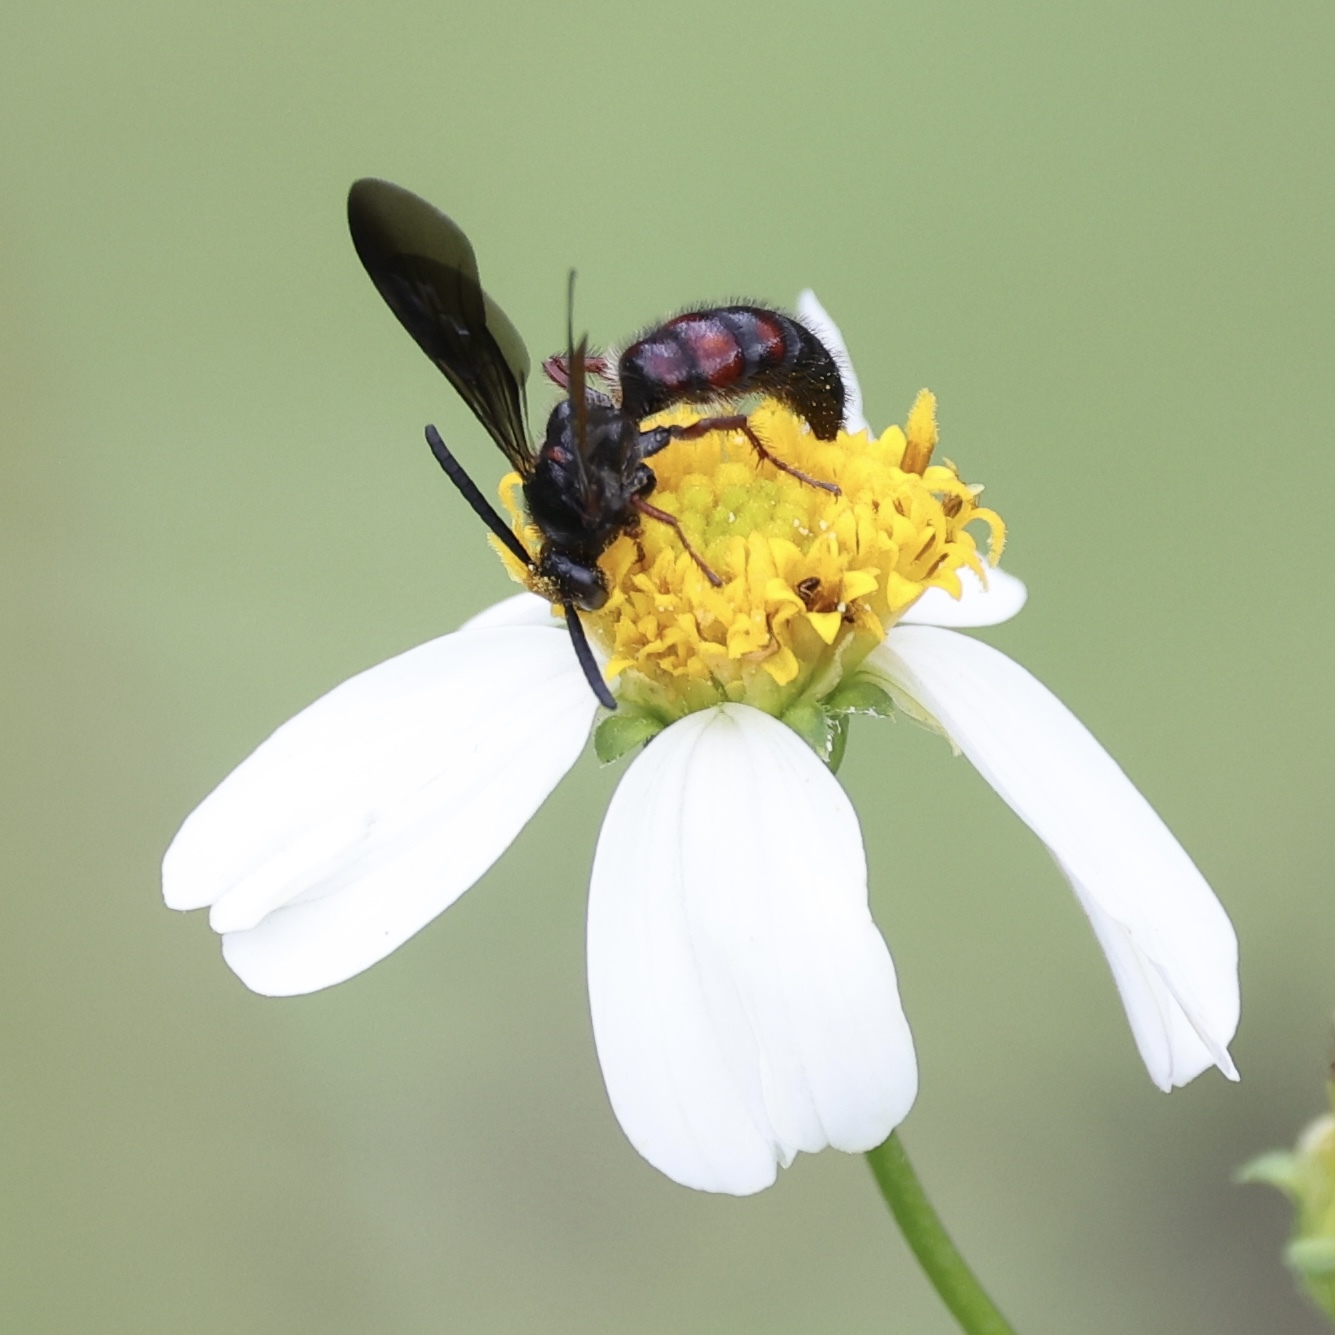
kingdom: Animalia
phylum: Arthropoda
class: Insecta
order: Hymenoptera
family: Scoliidae
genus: Scolia
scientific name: Scolia nobilitata
